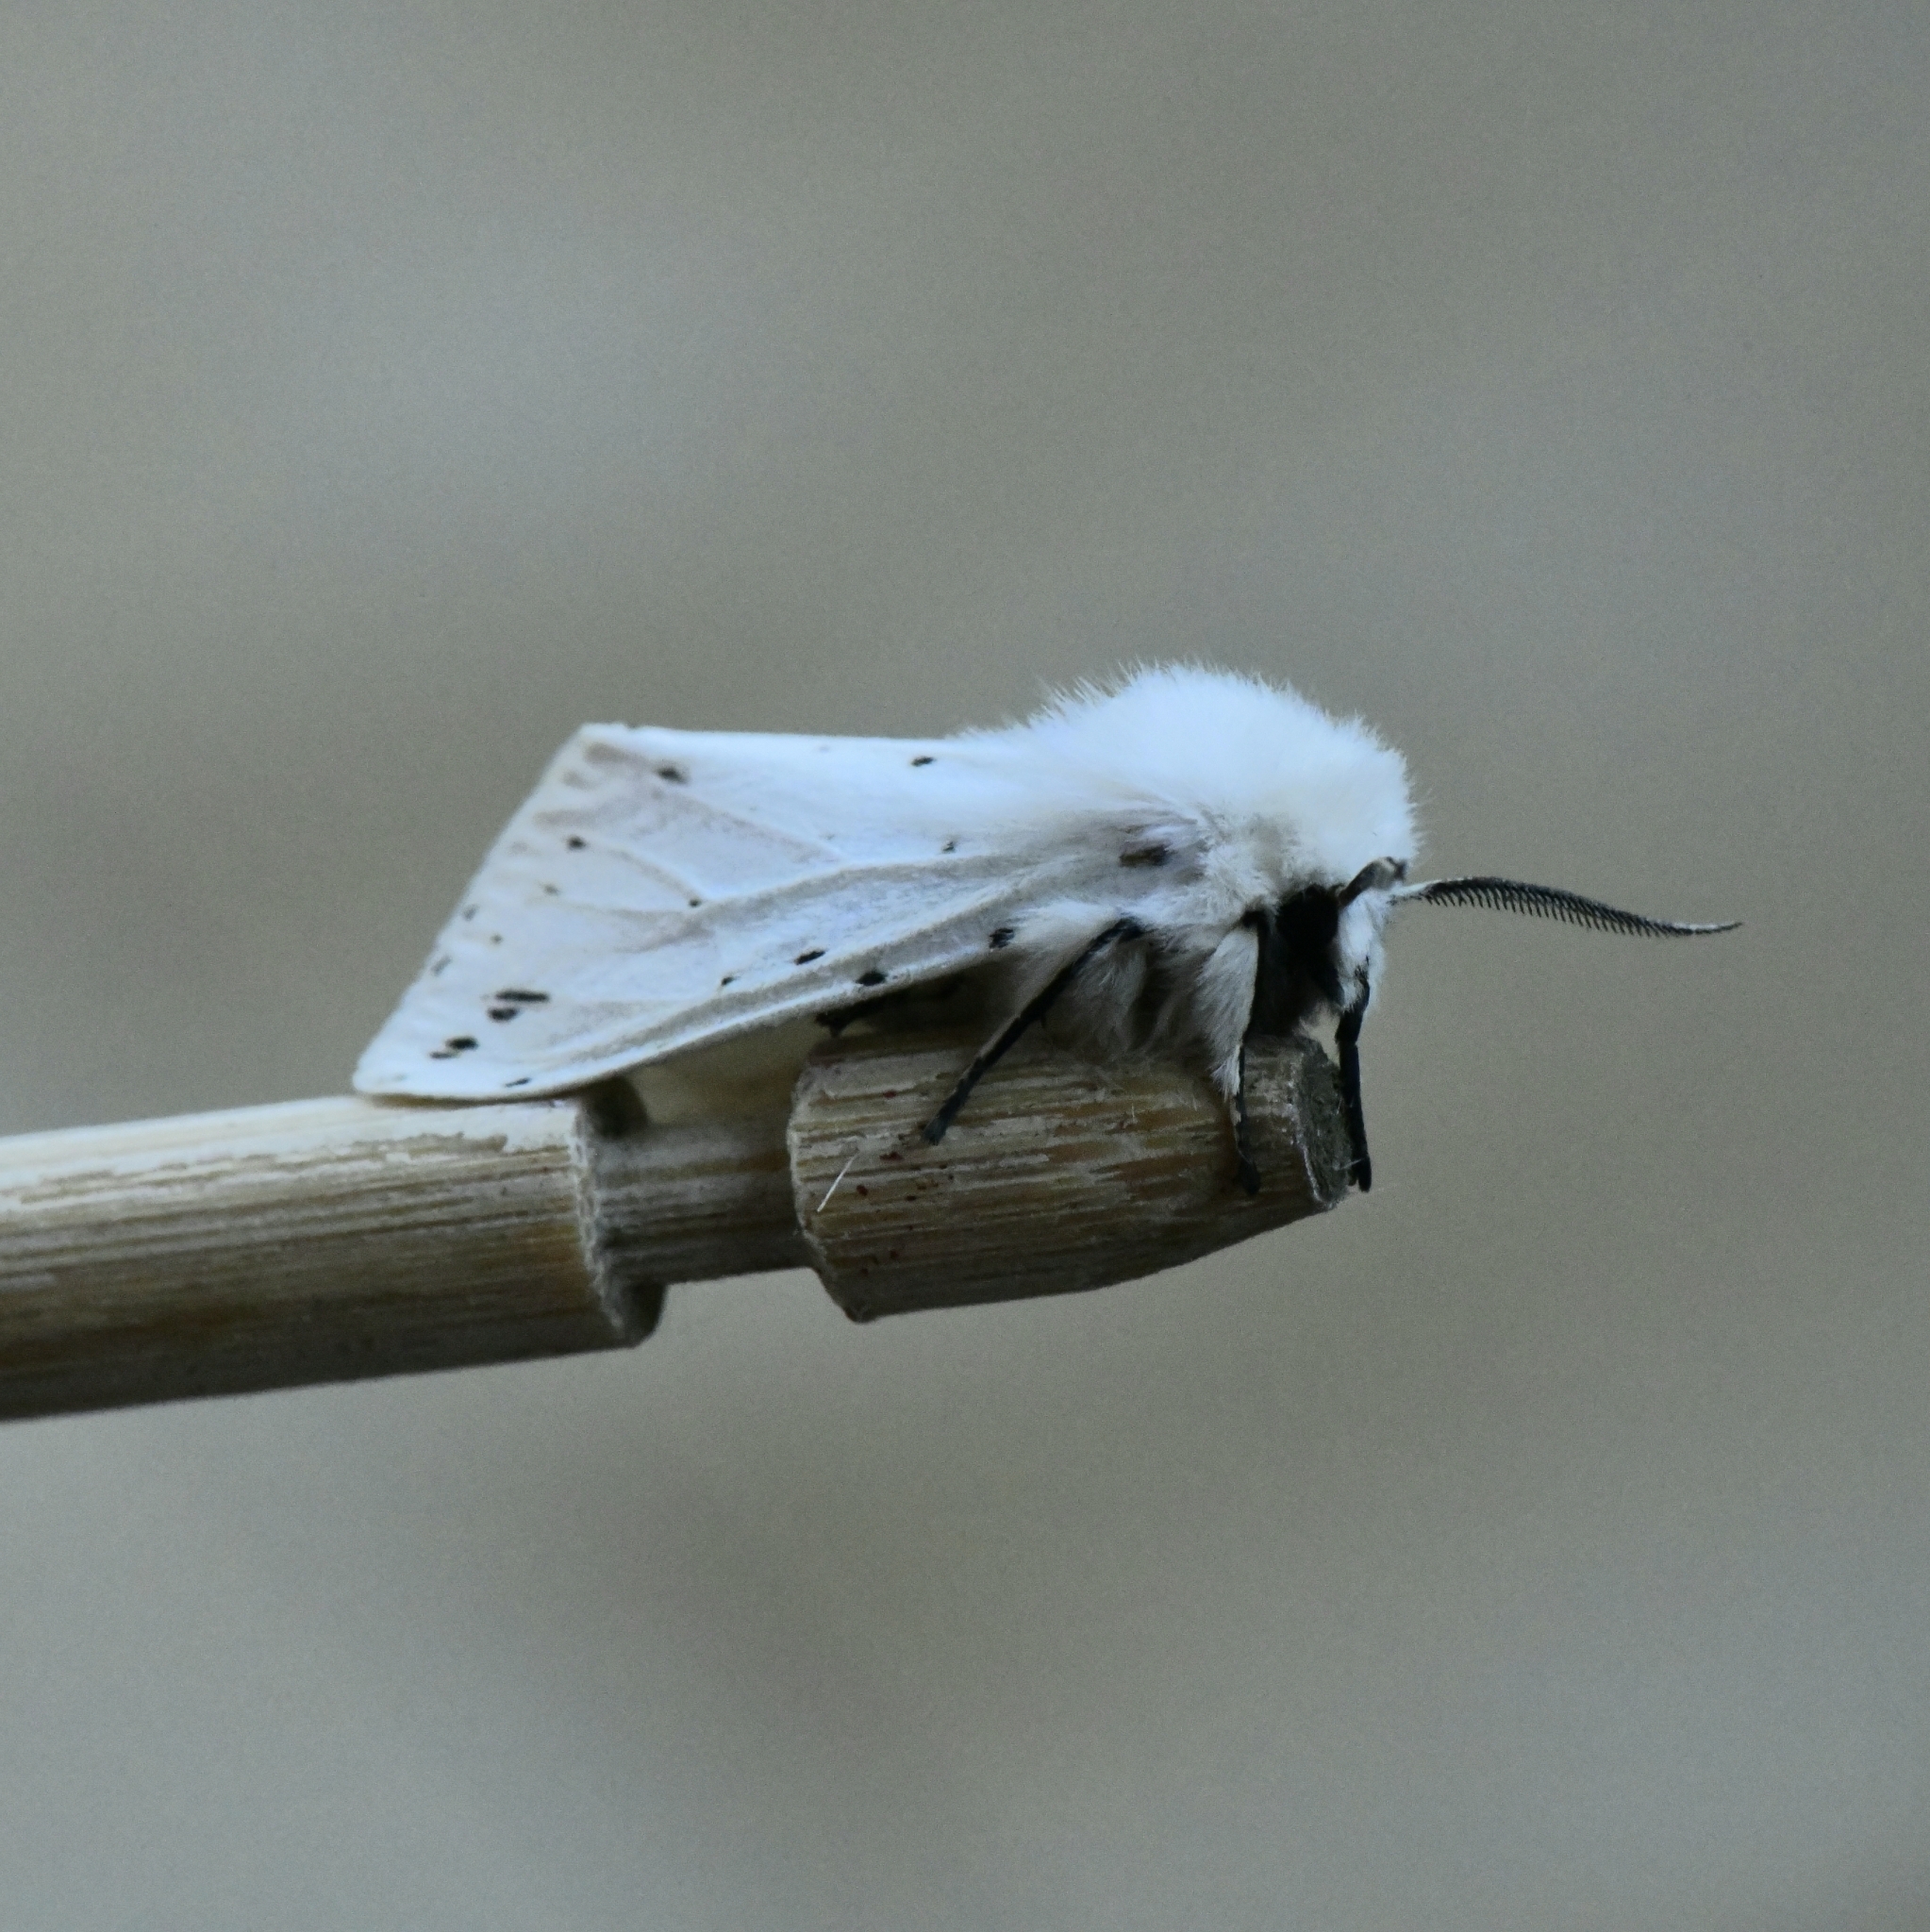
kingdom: Animalia
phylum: Arthropoda
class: Insecta
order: Lepidoptera
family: Erebidae
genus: Spilosoma
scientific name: Spilosoma lubricipeda
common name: White ermine
